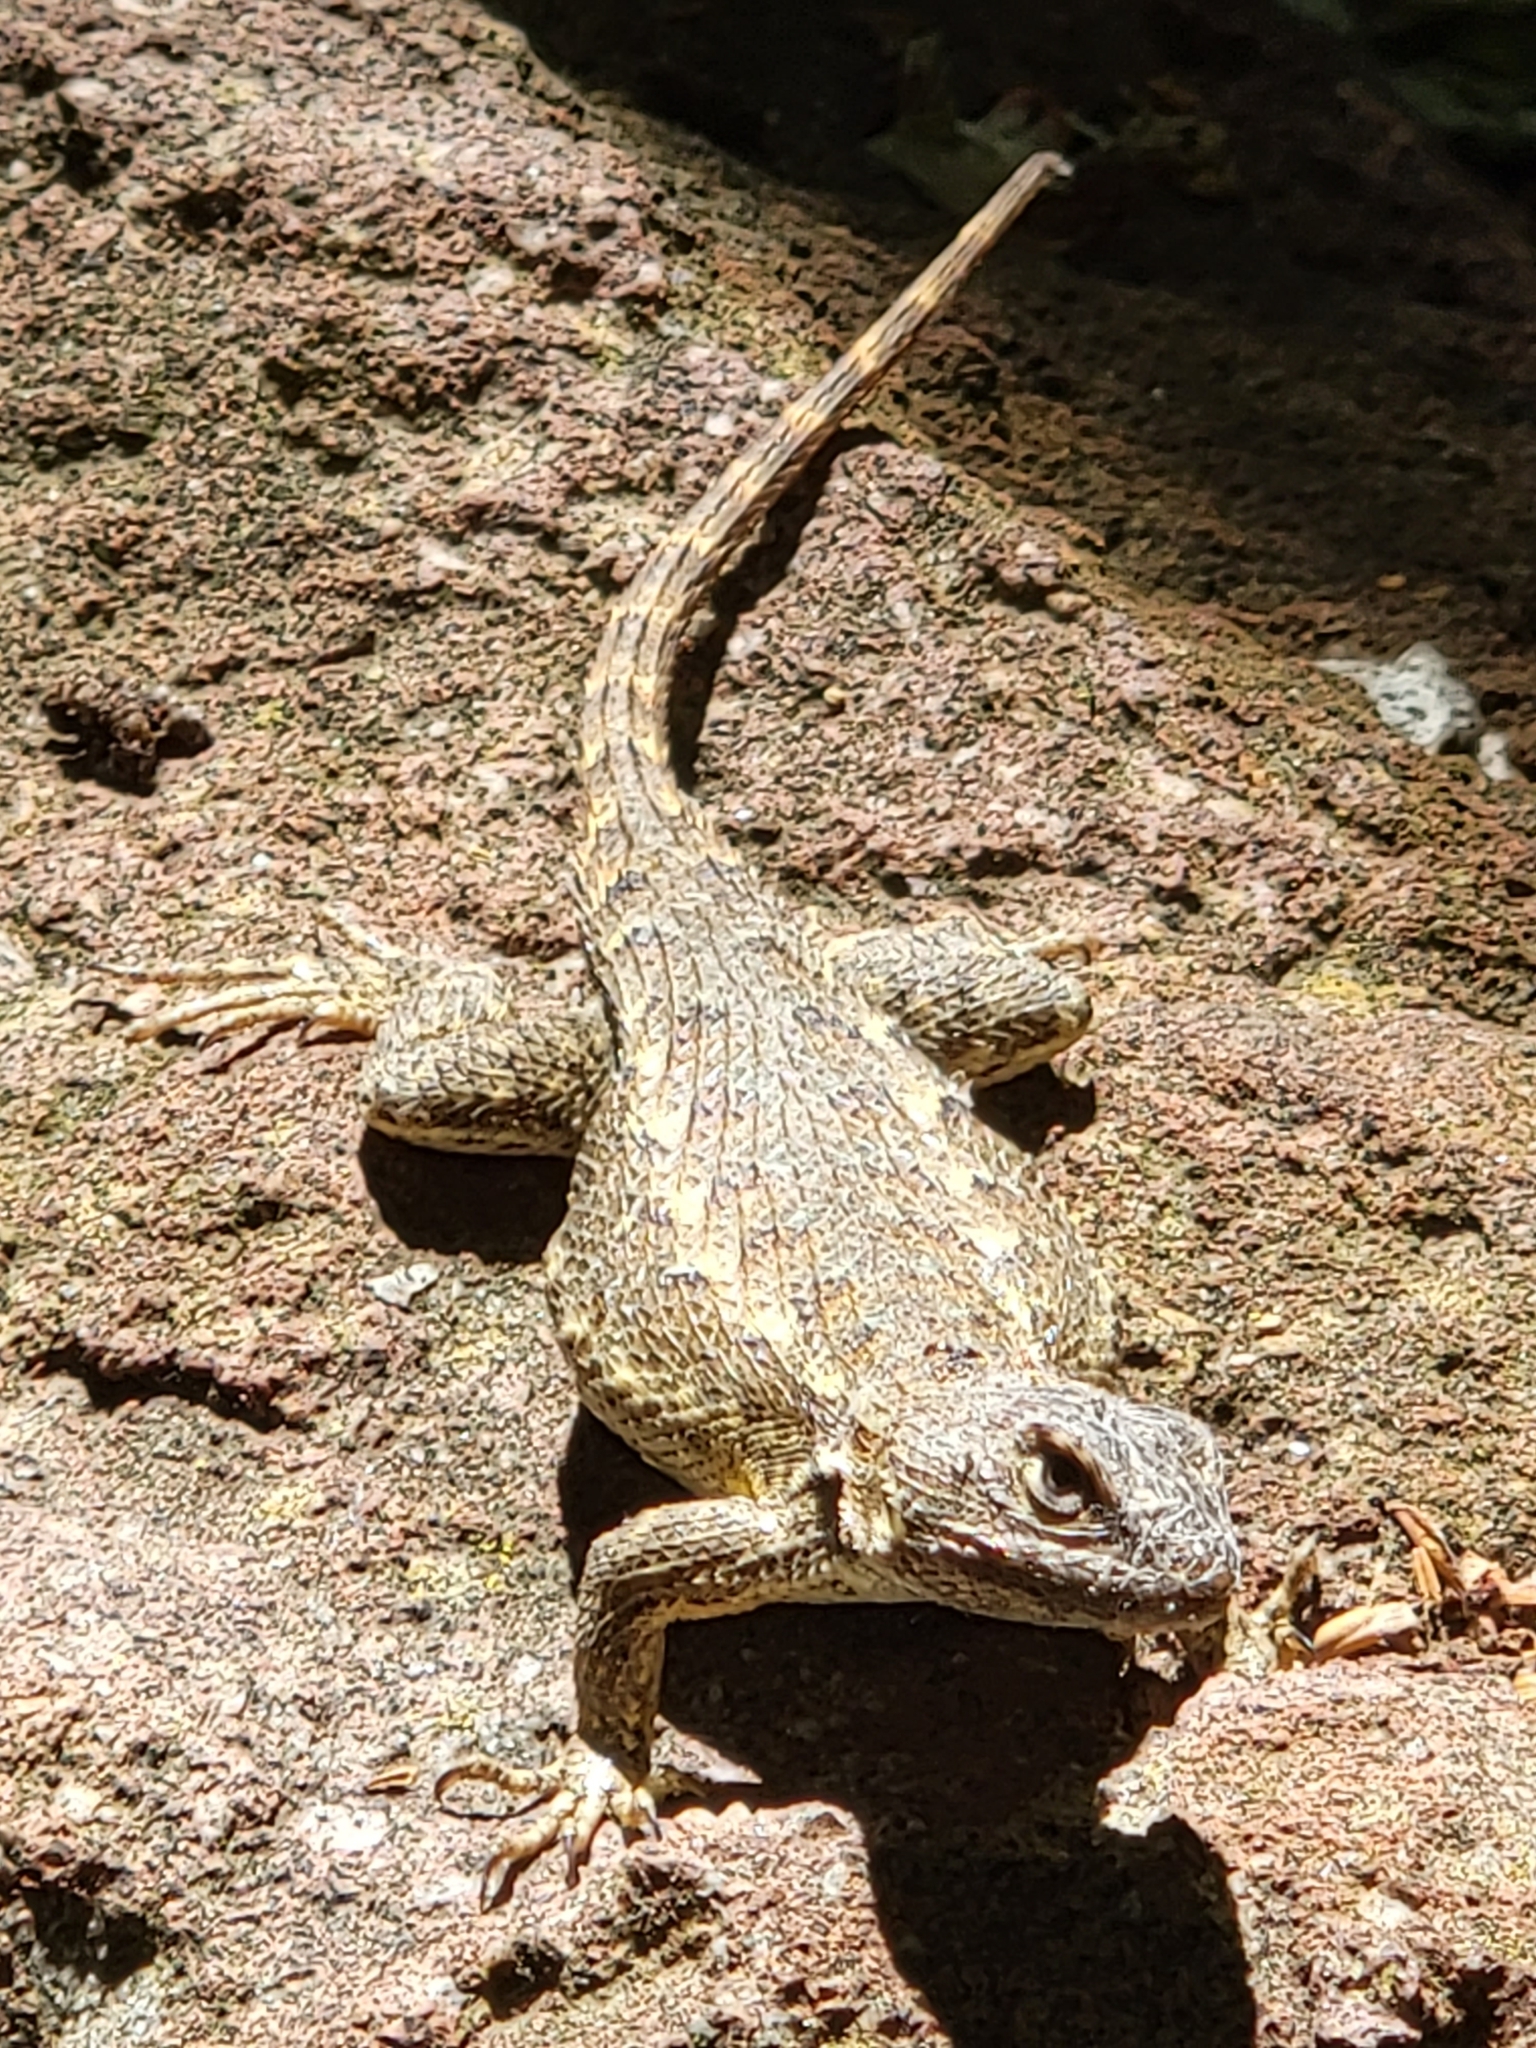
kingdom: Animalia
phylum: Chordata
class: Squamata
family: Phrynosomatidae
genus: Sceloporus
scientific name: Sceloporus occidentalis
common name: Western fence lizard
